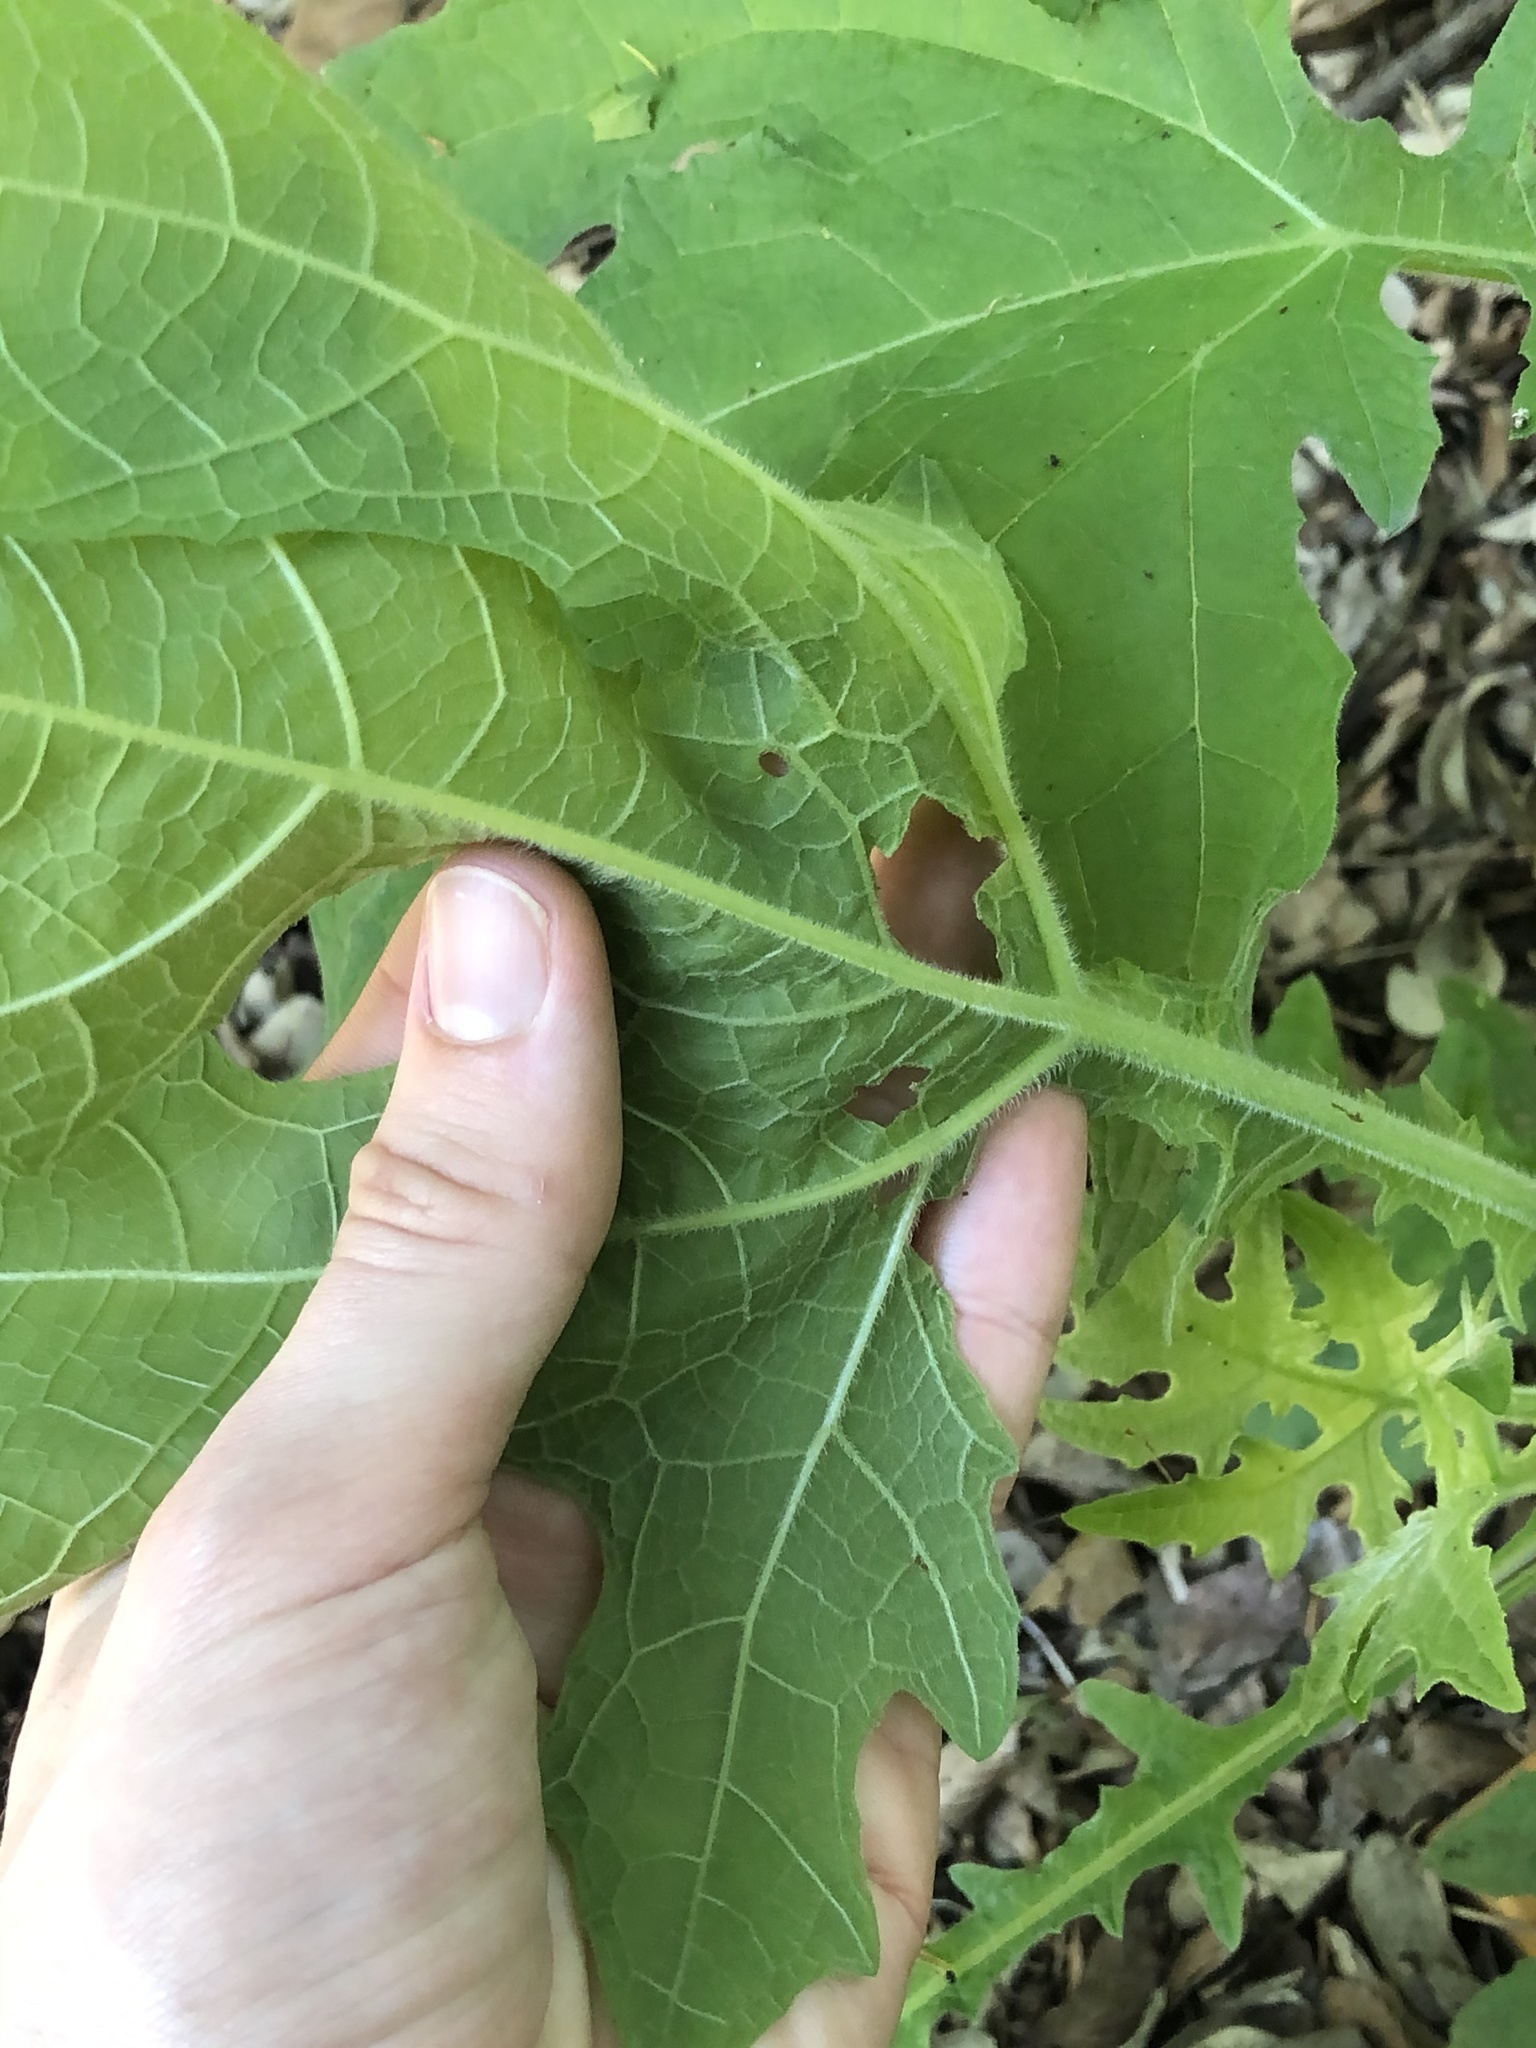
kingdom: Plantae
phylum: Tracheophyta
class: Magnoliopsida
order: Asterales
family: Asteraceae
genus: Smallanthus
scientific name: Smallanthus uvedalia
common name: Bear's-foot
